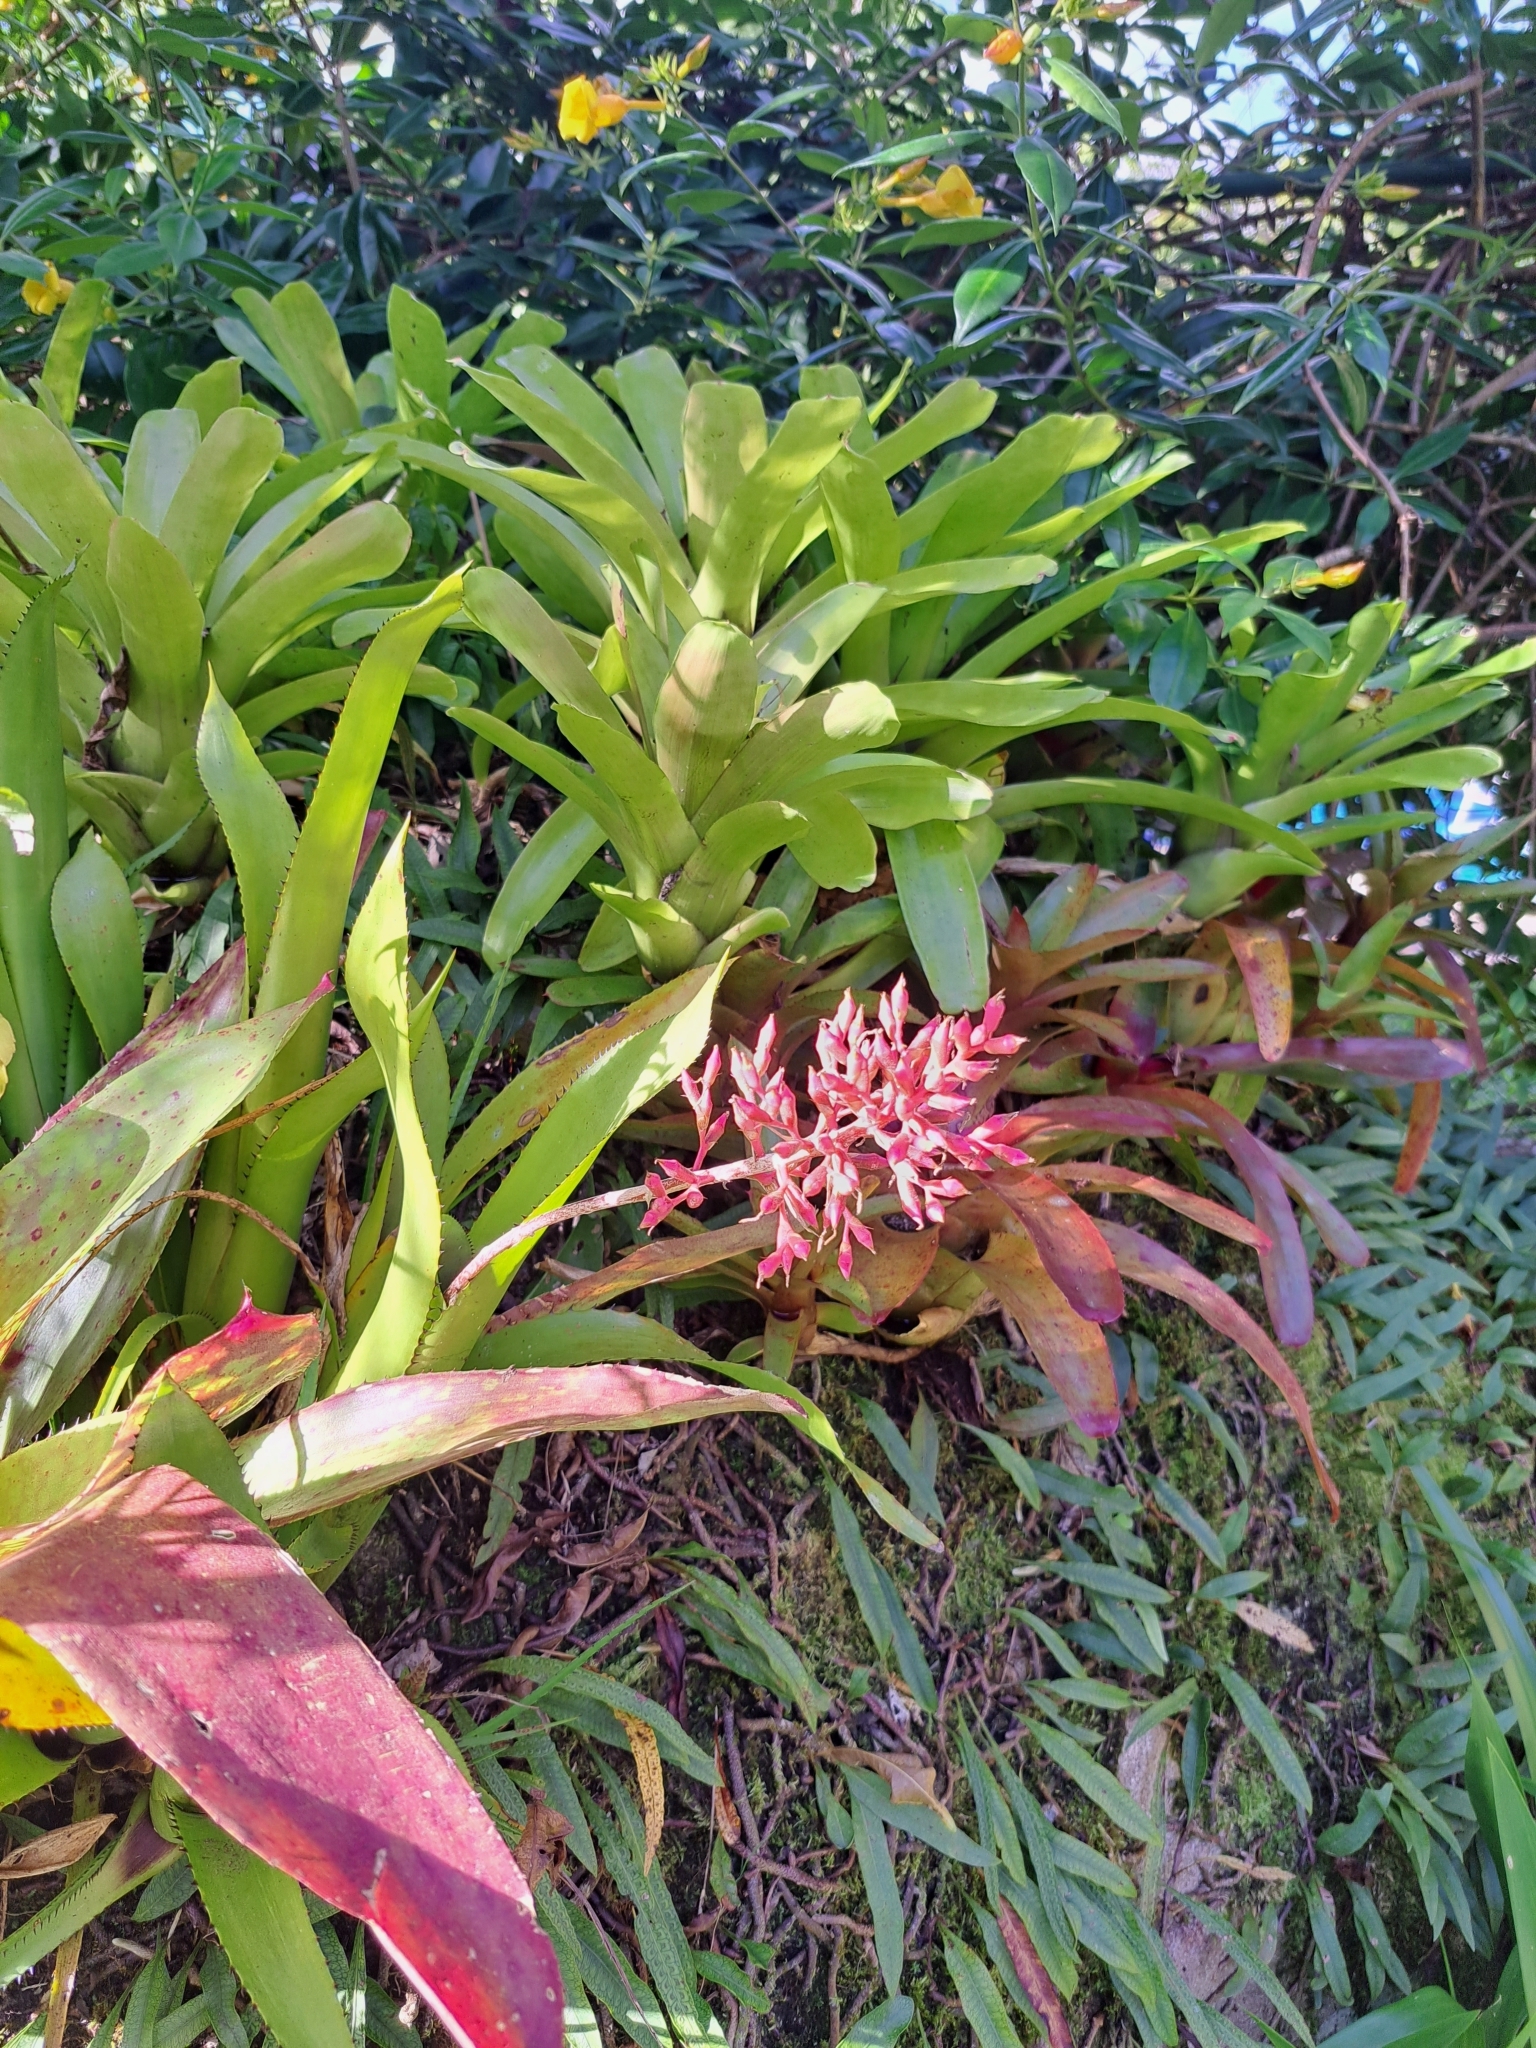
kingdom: Plantae
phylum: Tracheophyta
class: Liliopsida
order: Poales
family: Bromeliaceae
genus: Aechmea
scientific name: Aechmea purpureorosea
